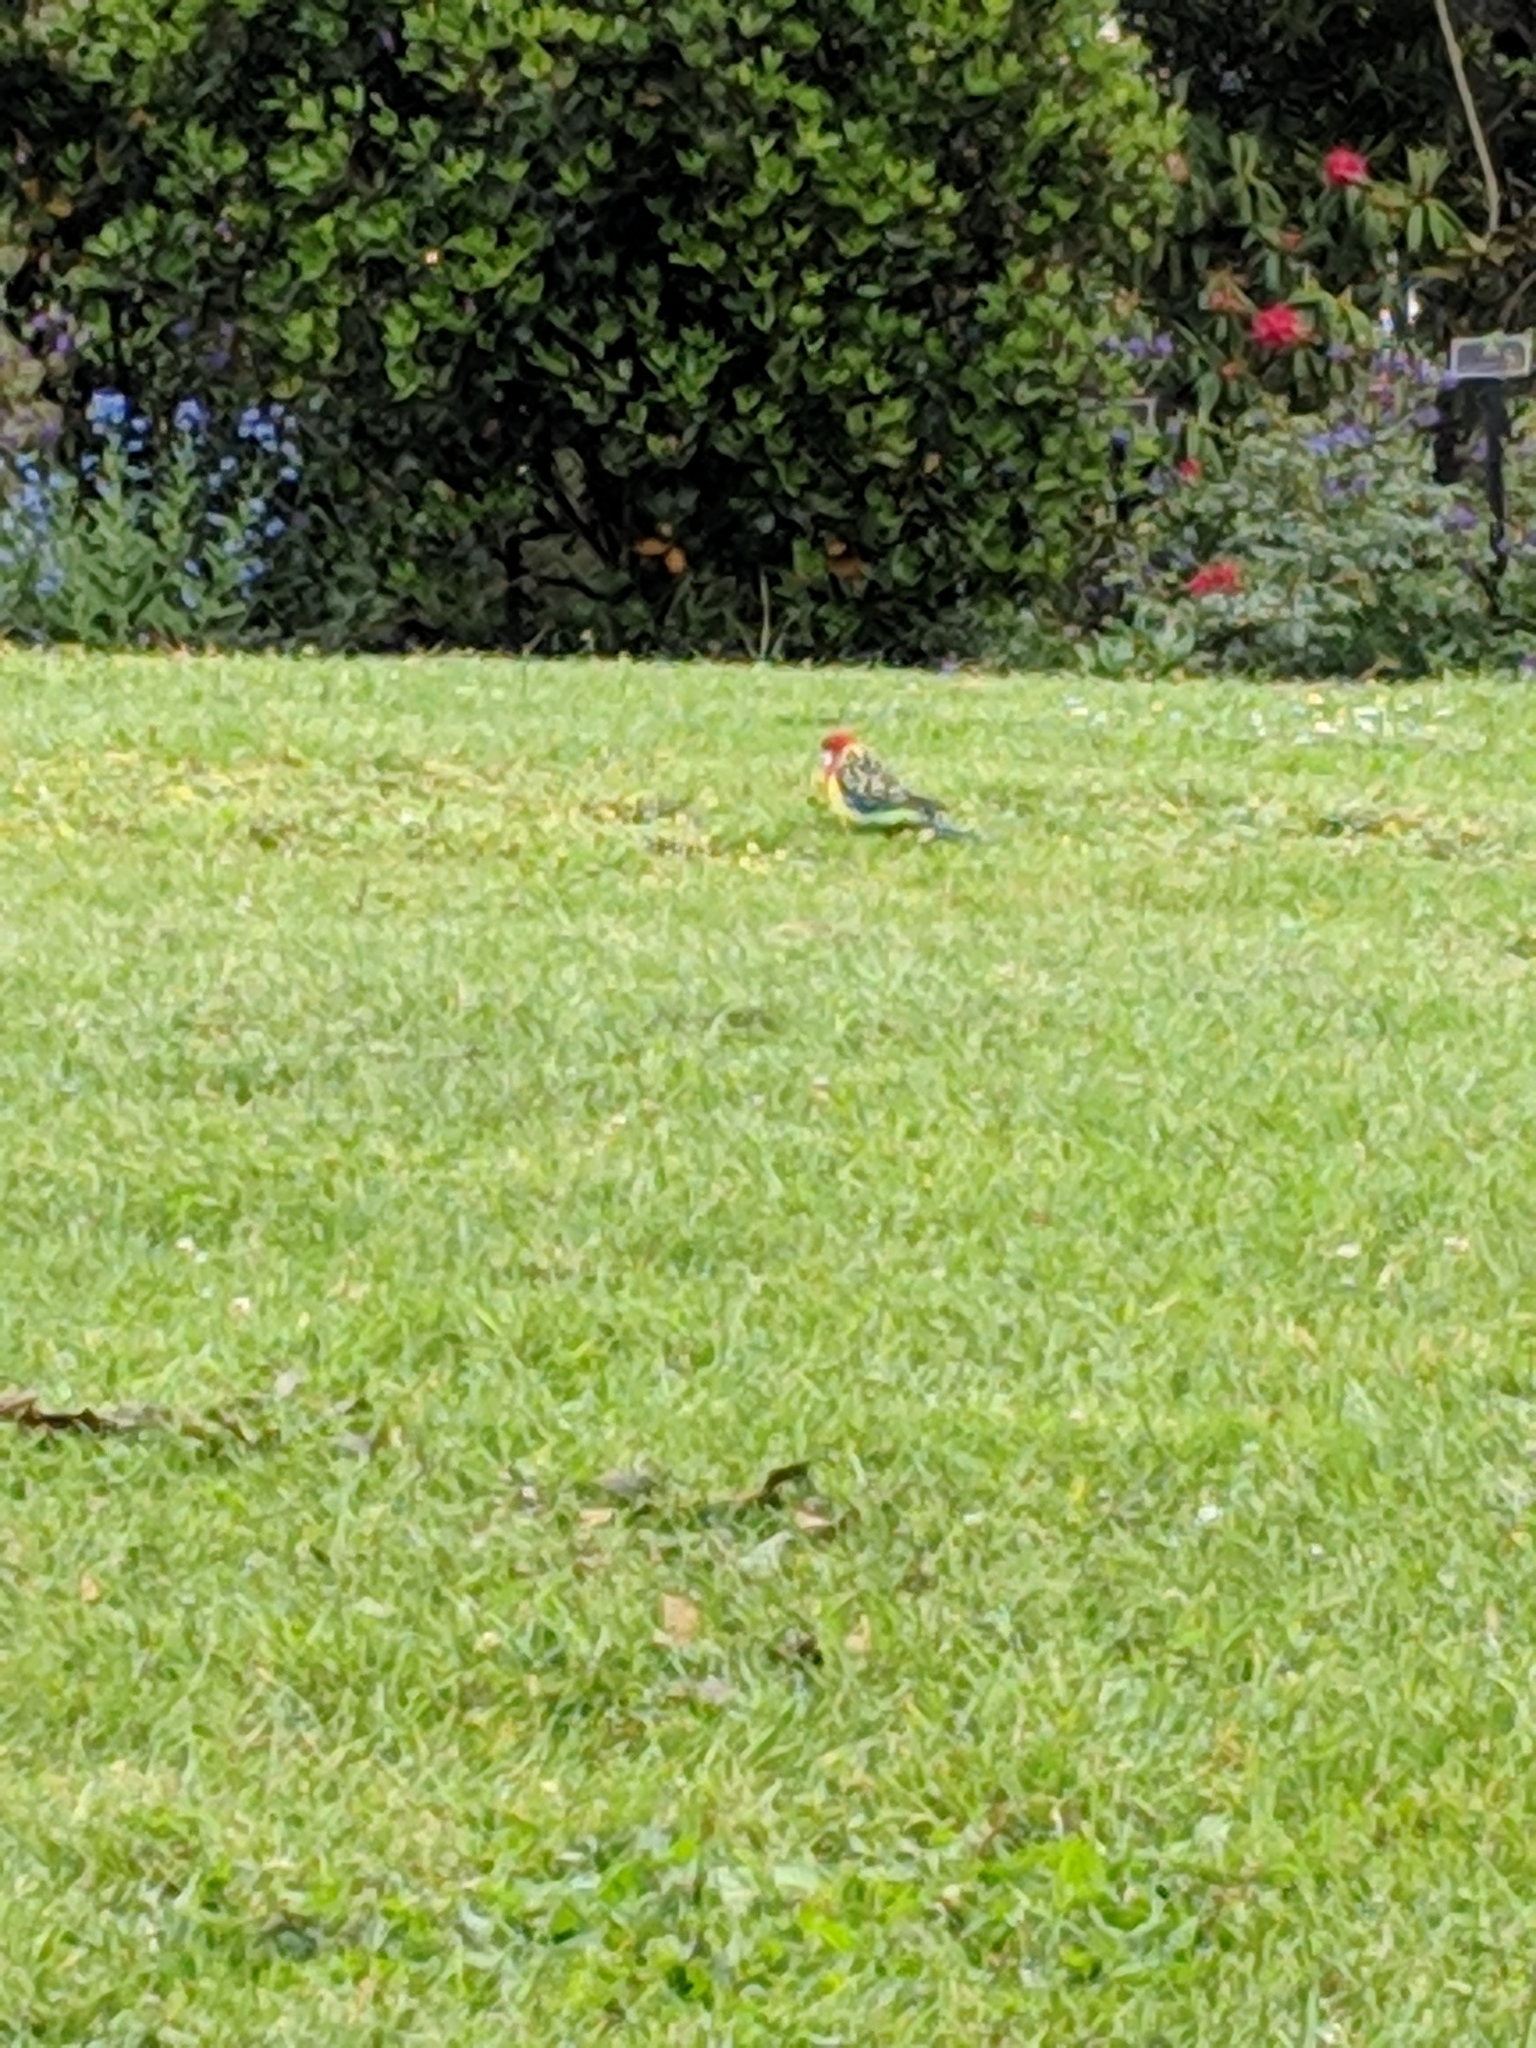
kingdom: Animalia
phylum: Chordata
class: Aves
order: Psittaciformes
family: Psittacidae
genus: Platycercus
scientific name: Platycercus eximius
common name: Eastern rosella
